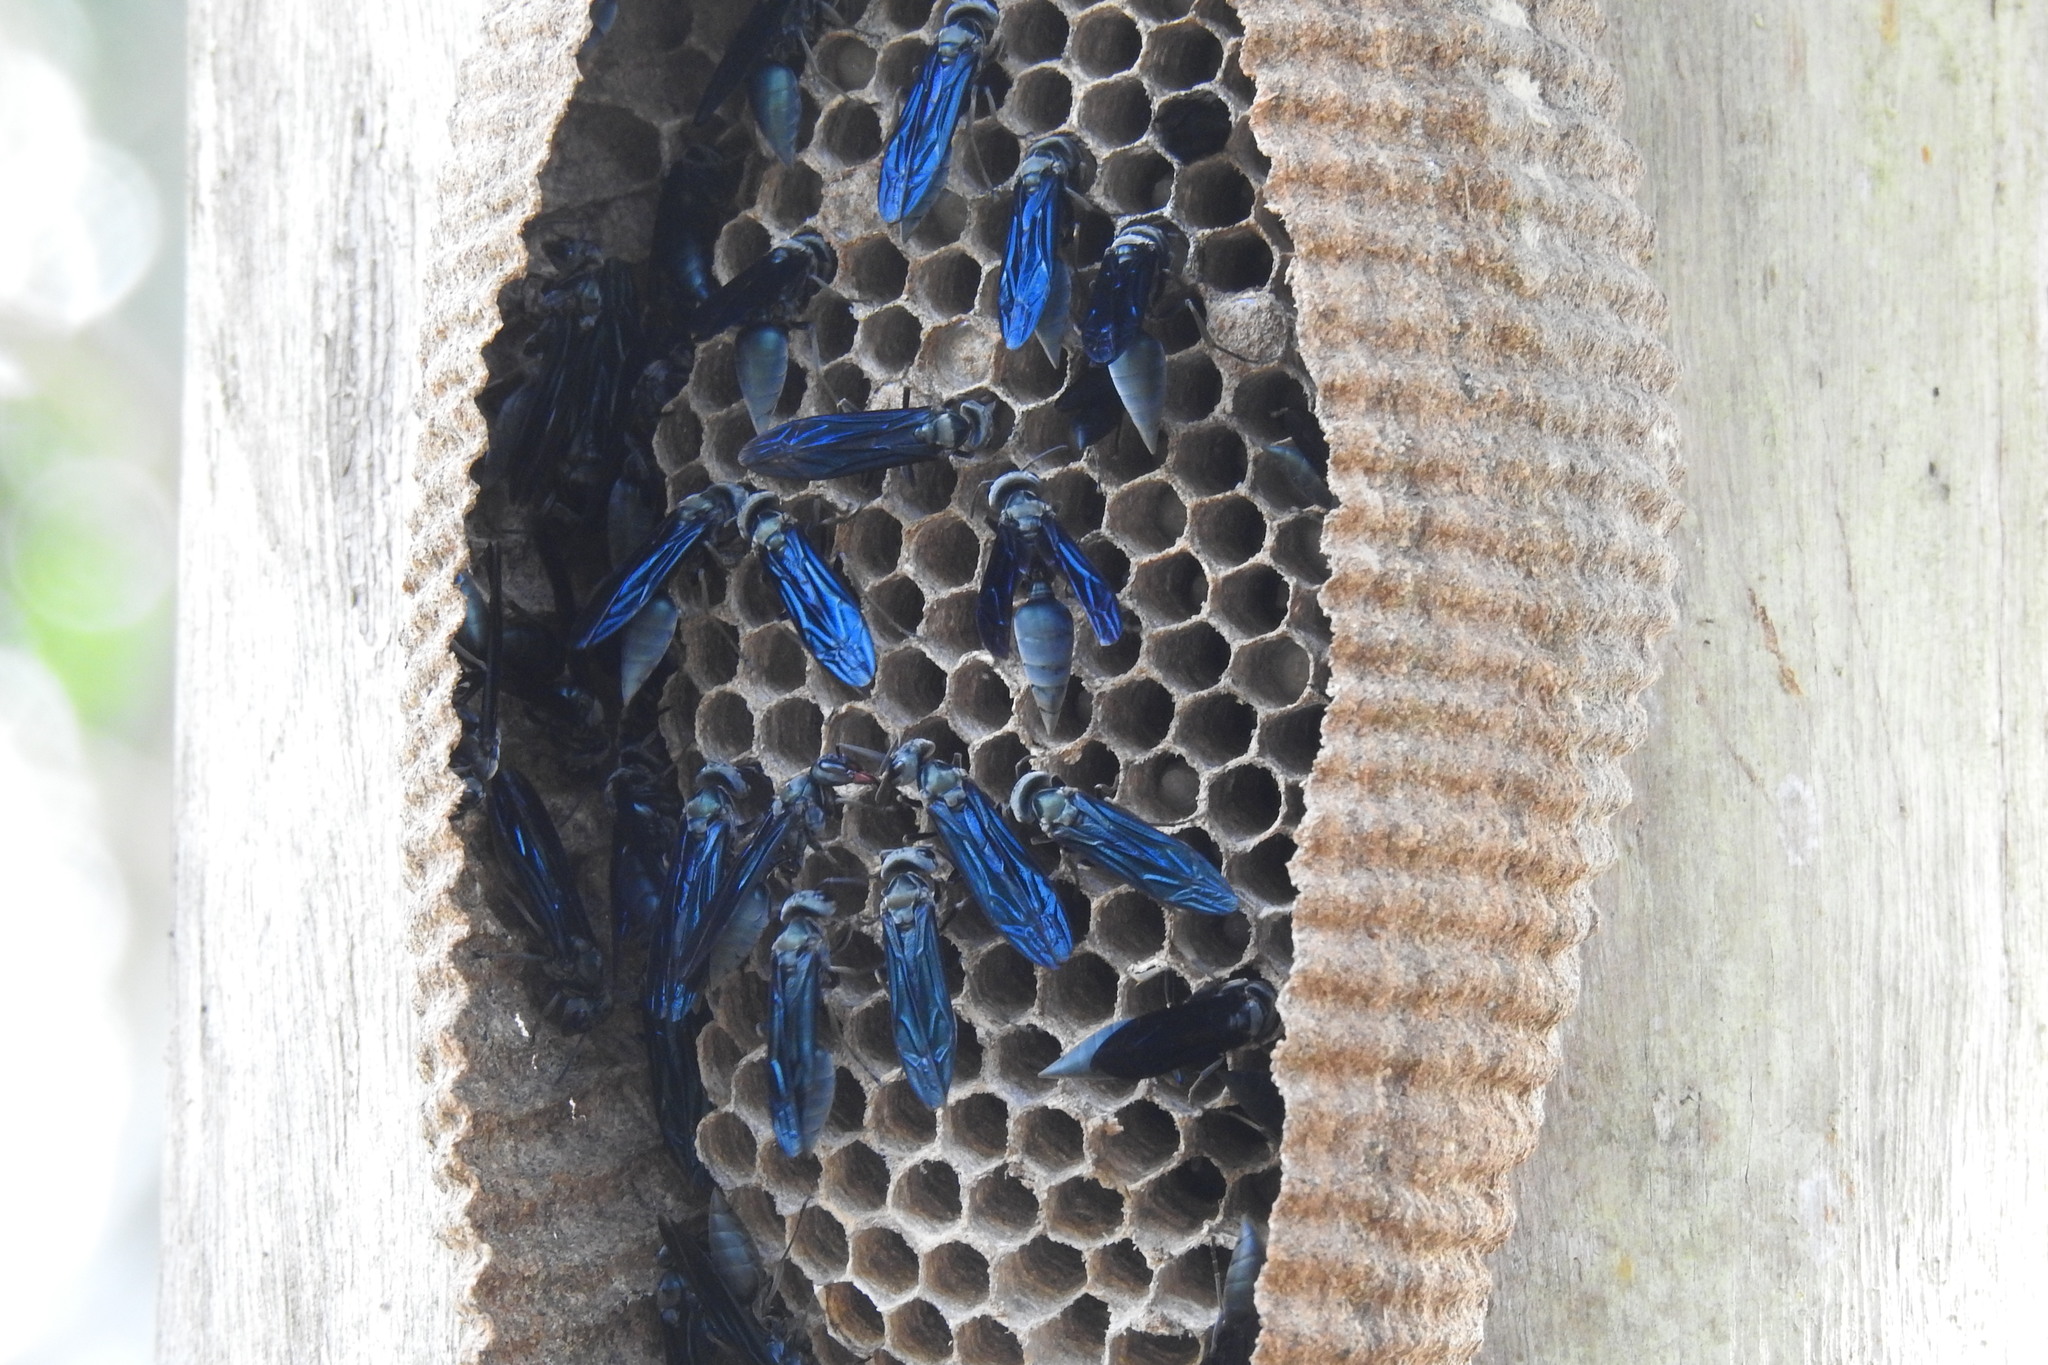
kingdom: Animalia
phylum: Arthropoda
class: Insecta
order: Hymenoptera
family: Vespidae
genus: Synoeca
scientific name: Synoeca septentrionalis
